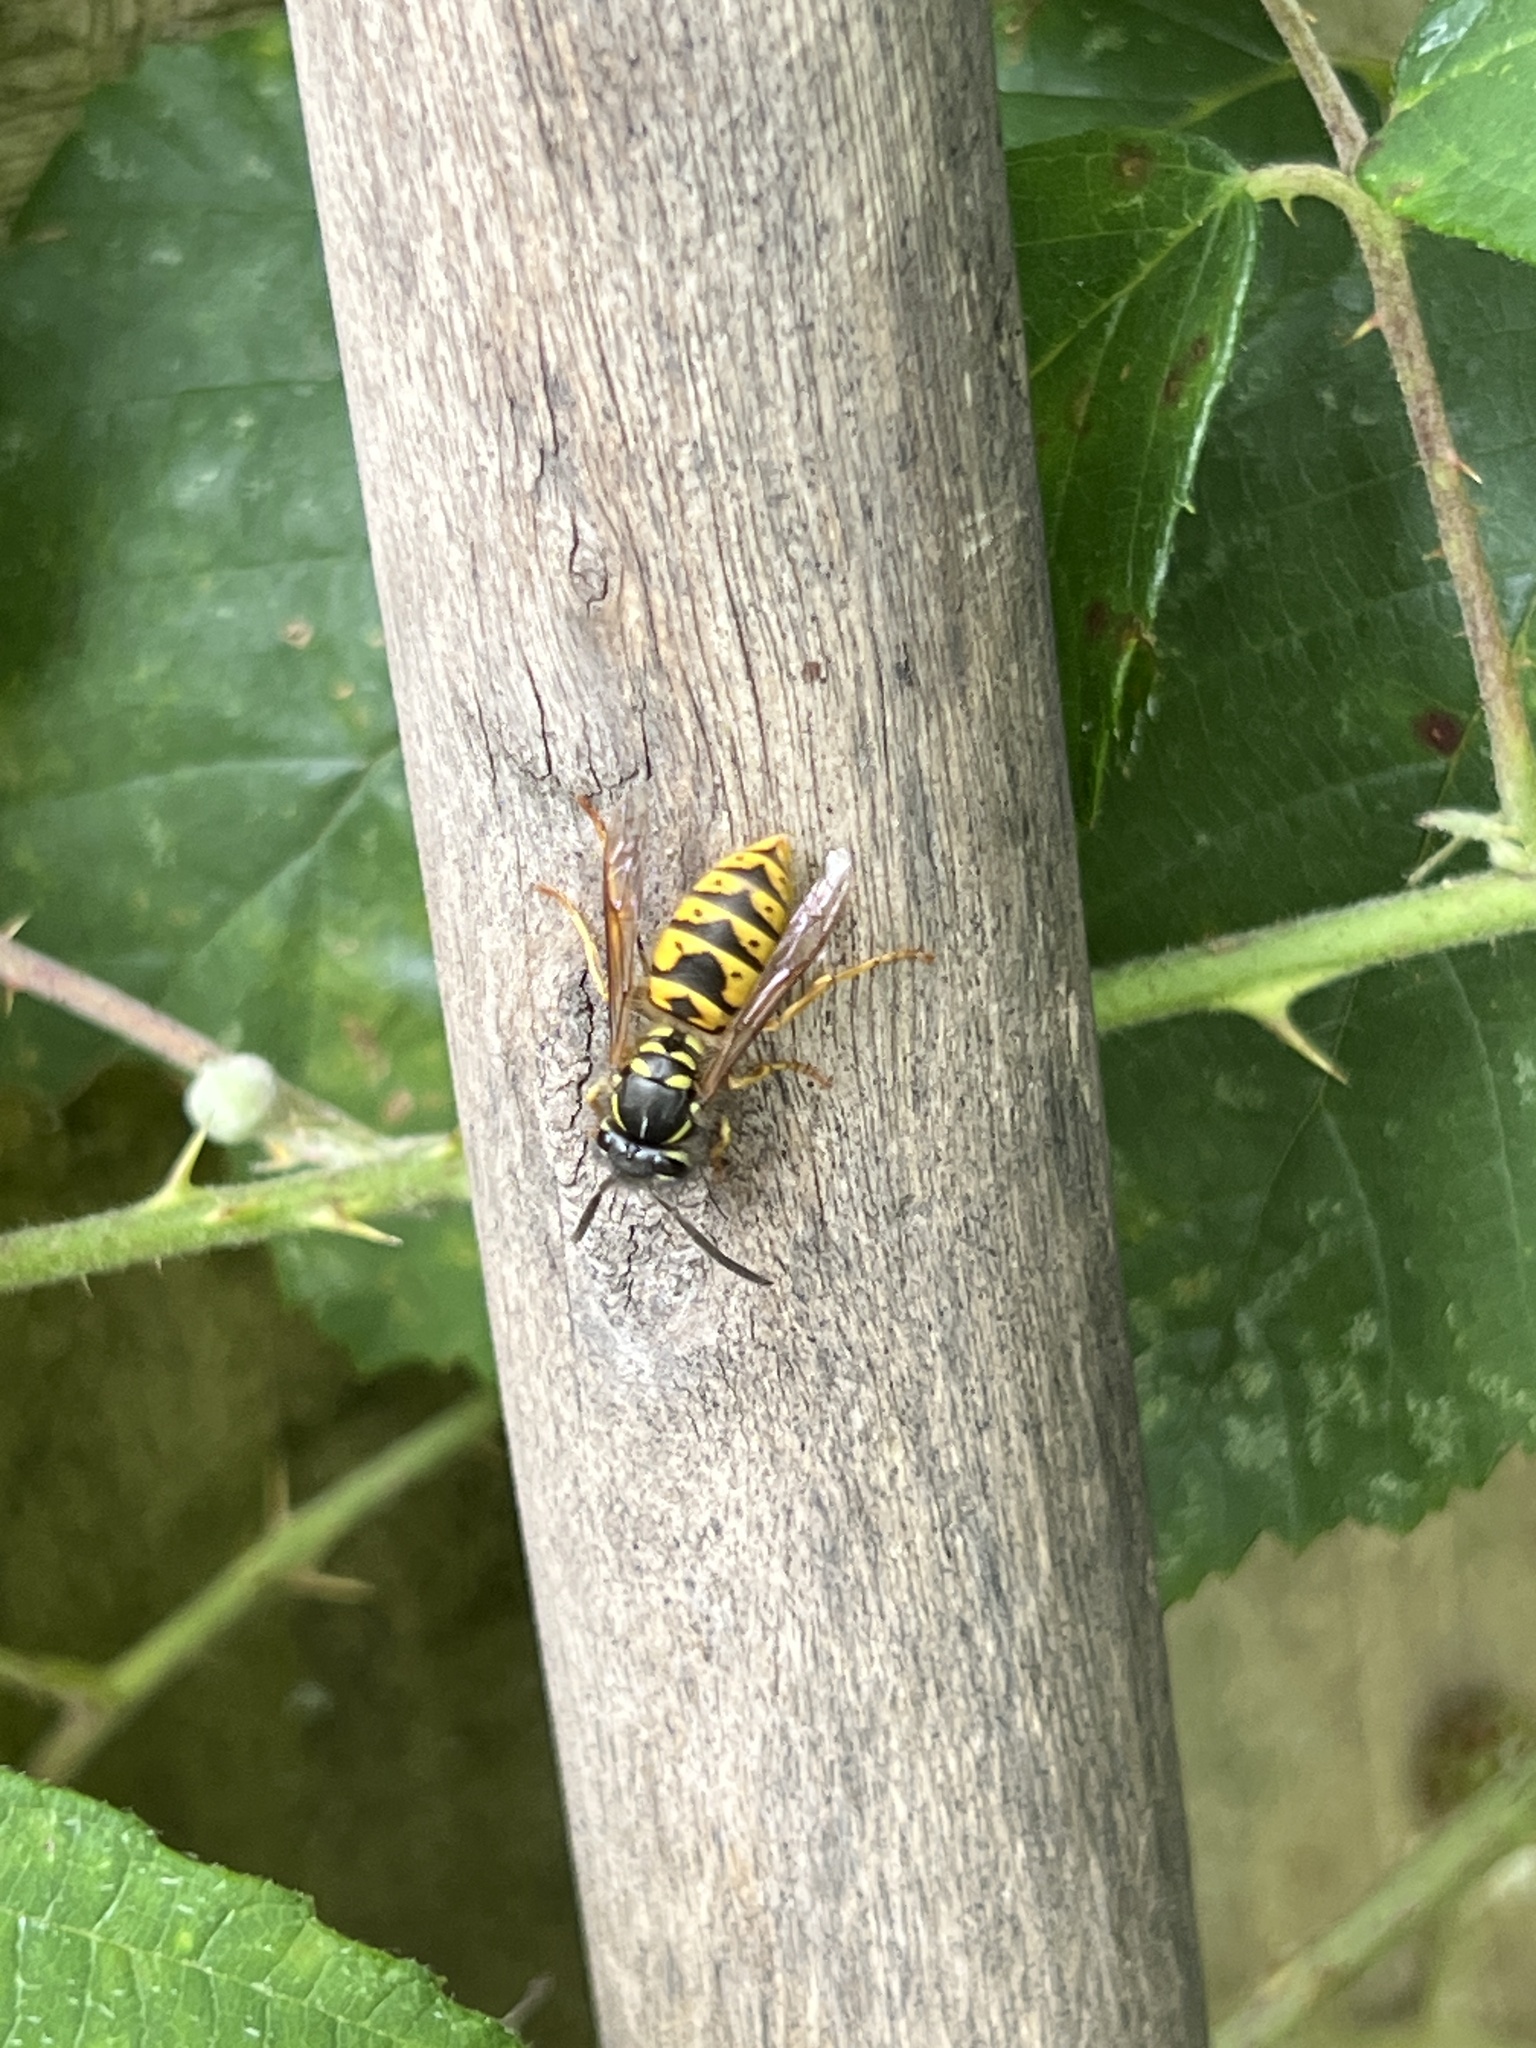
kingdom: Animalia
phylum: Arthropoda
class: Insecta
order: Hymenoptera
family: Vespidae
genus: Vespula
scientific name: Vespula vulgaris
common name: Common wasp
